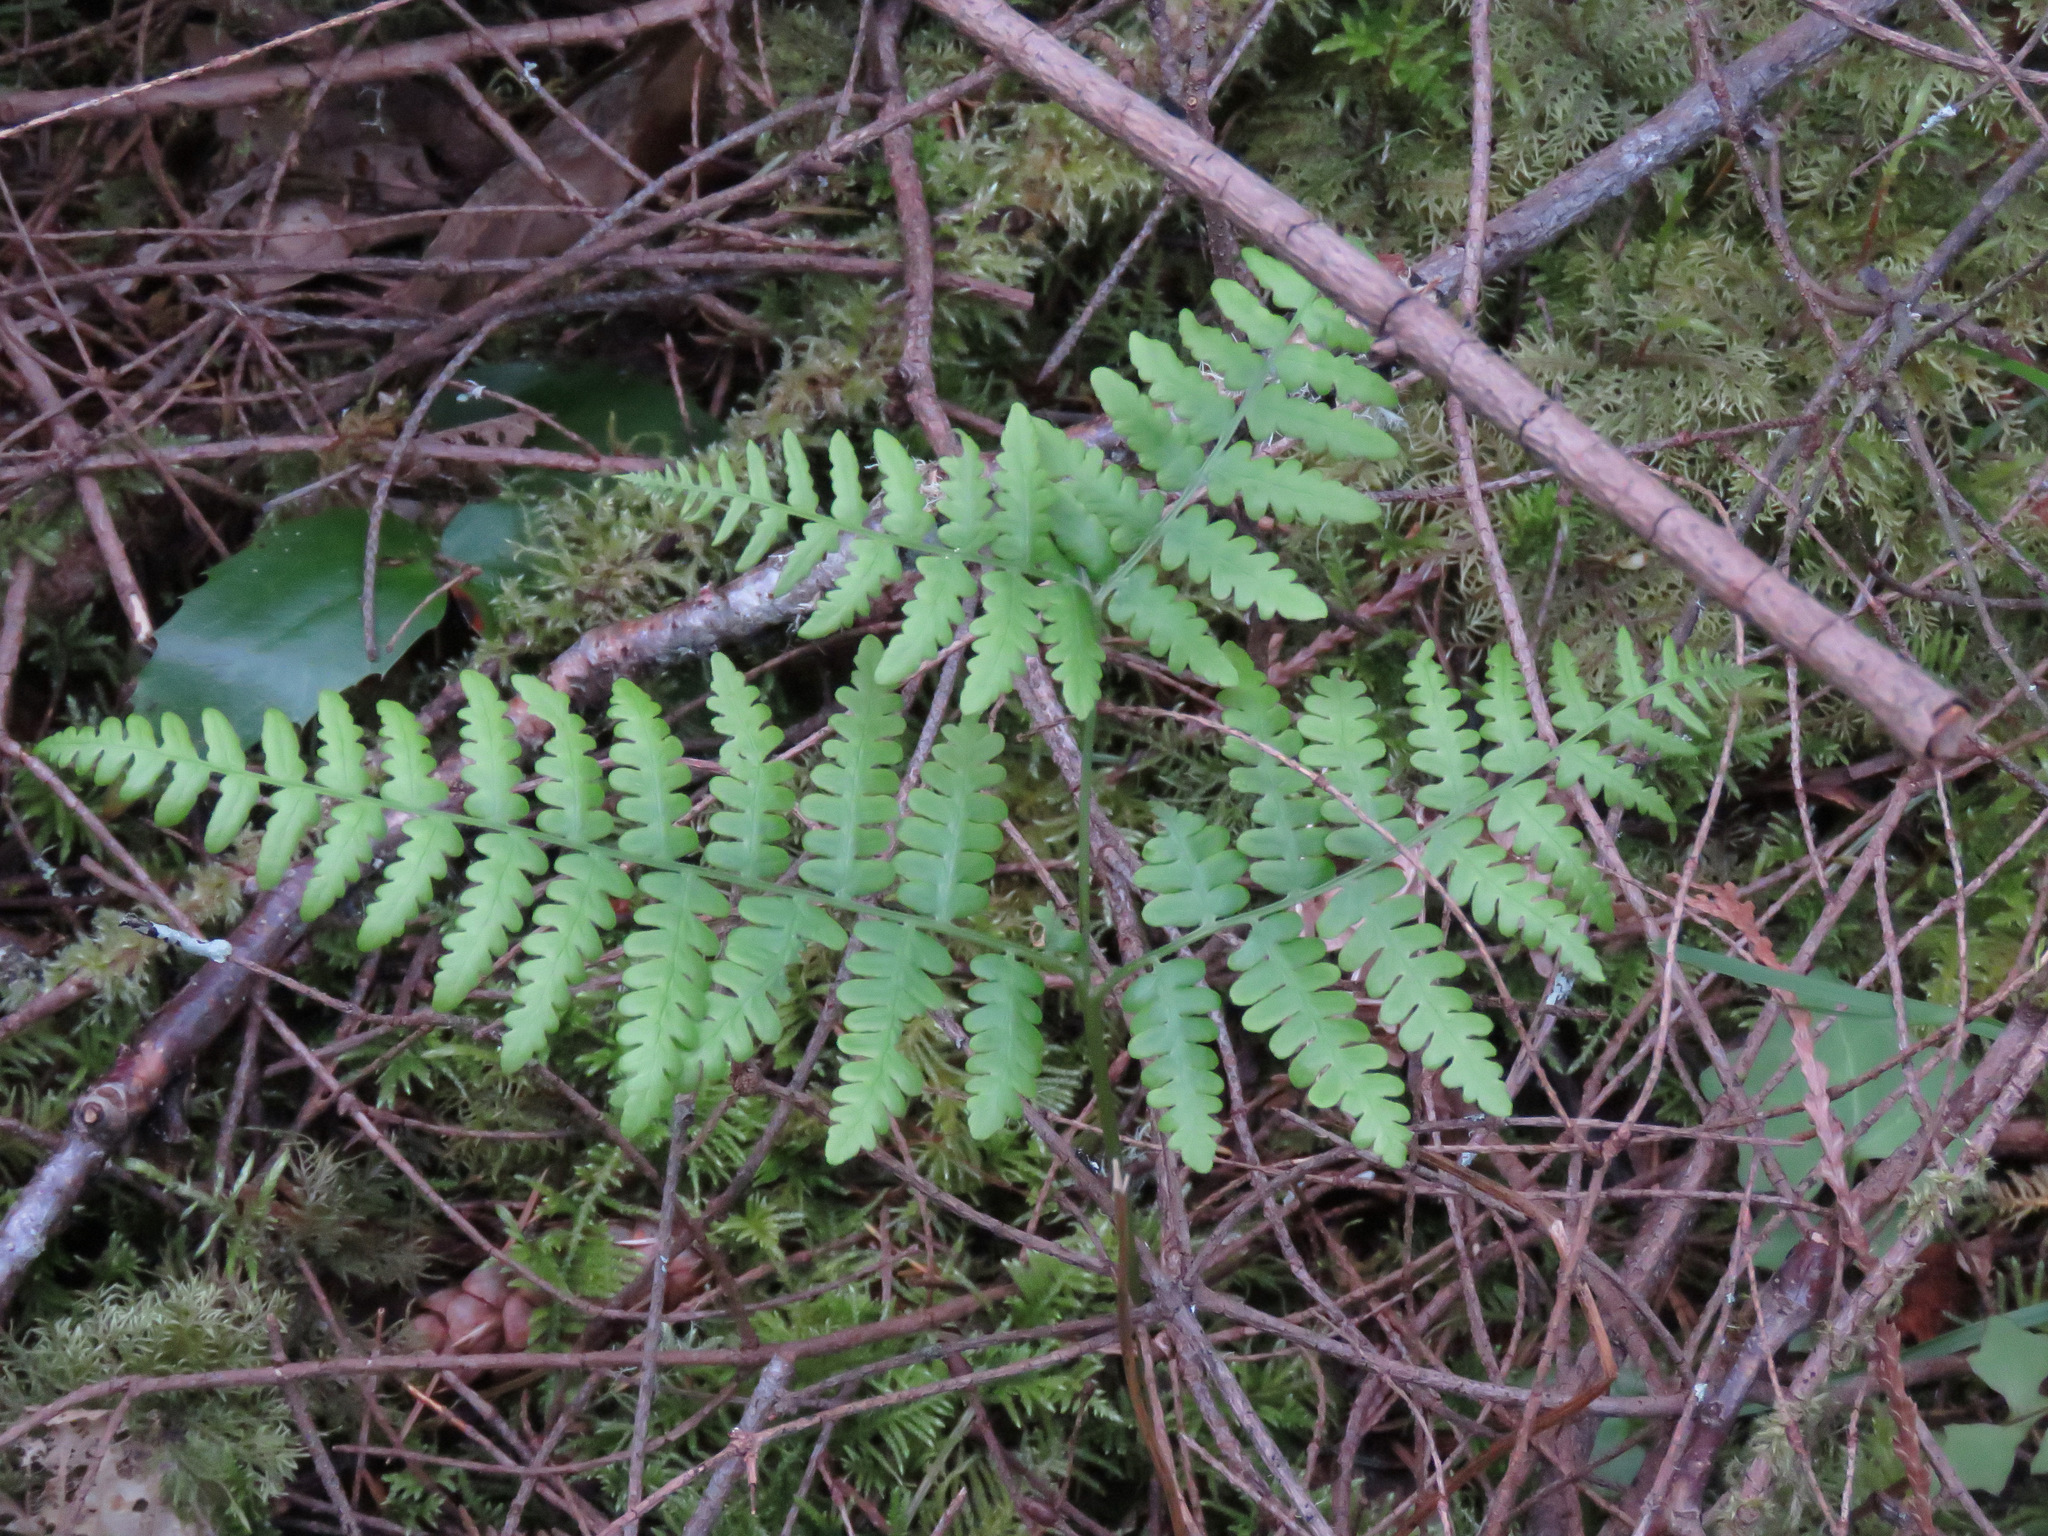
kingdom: Plantae
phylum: Tracheophyta
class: Polypodiopsida
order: Polypodiales
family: Dennstaedtiaceae
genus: Pteridium
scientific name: Pteridium aquilinum
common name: Bracken
